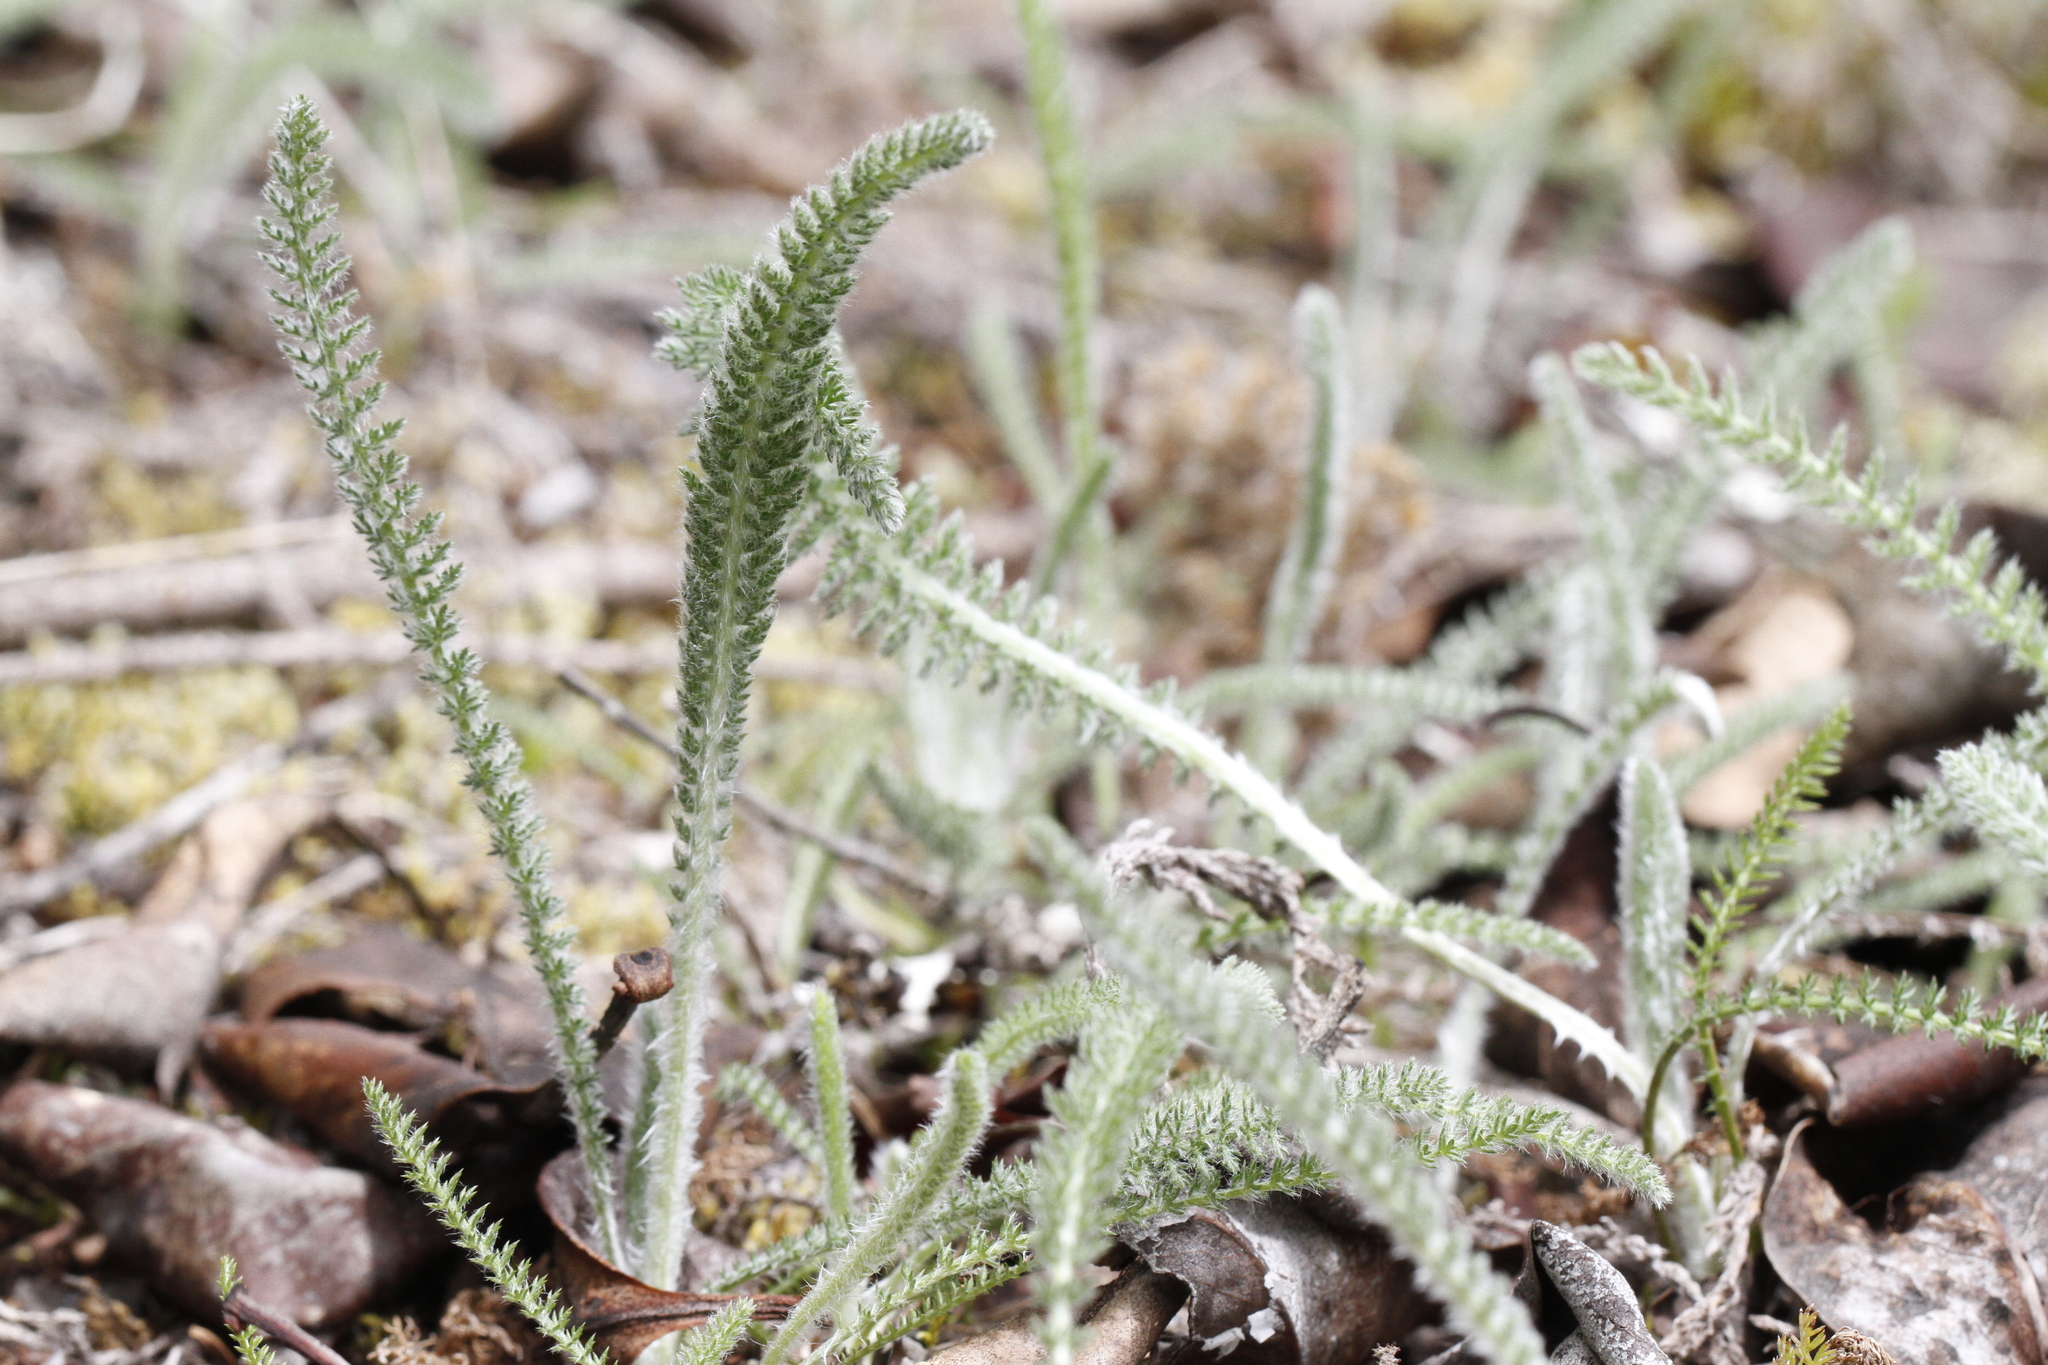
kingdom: Plantae
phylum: Tracheophyta
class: Magnoliopsida
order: Asterales
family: Asteraceae
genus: Achillea
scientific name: Achillea millefolium
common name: Yarrow
